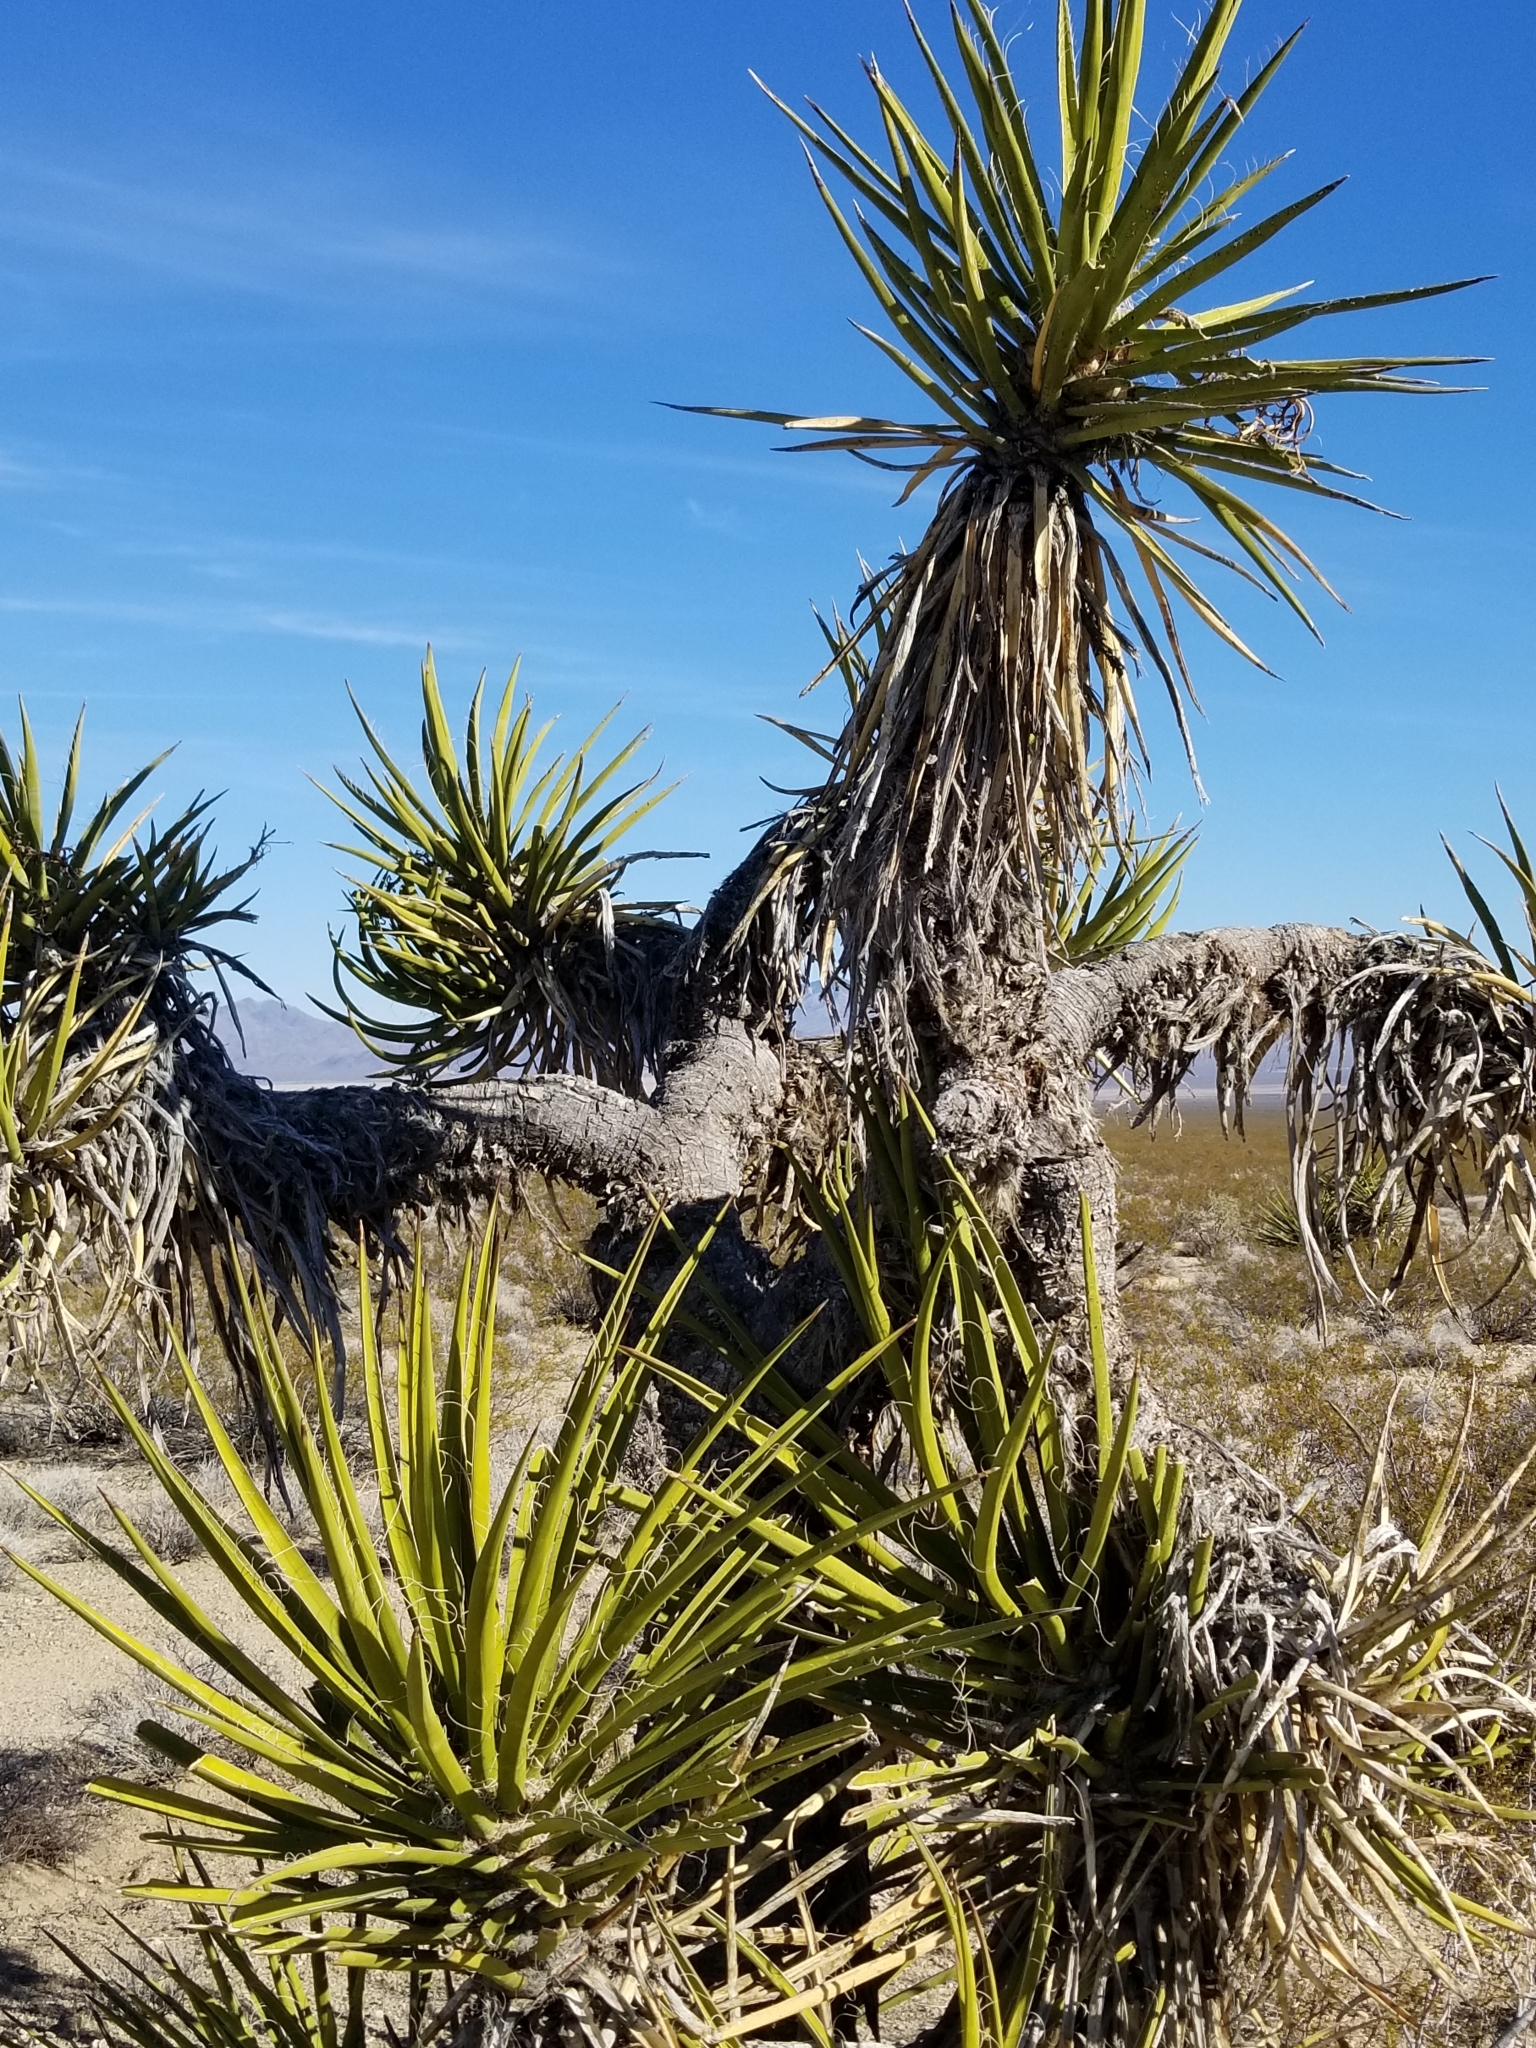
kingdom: Plantae
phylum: Tracheophyta
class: Liliopsida
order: Asparagales
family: Asparagaceae
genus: Yucca
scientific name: Yucca schidigera
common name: Mojave yucca
